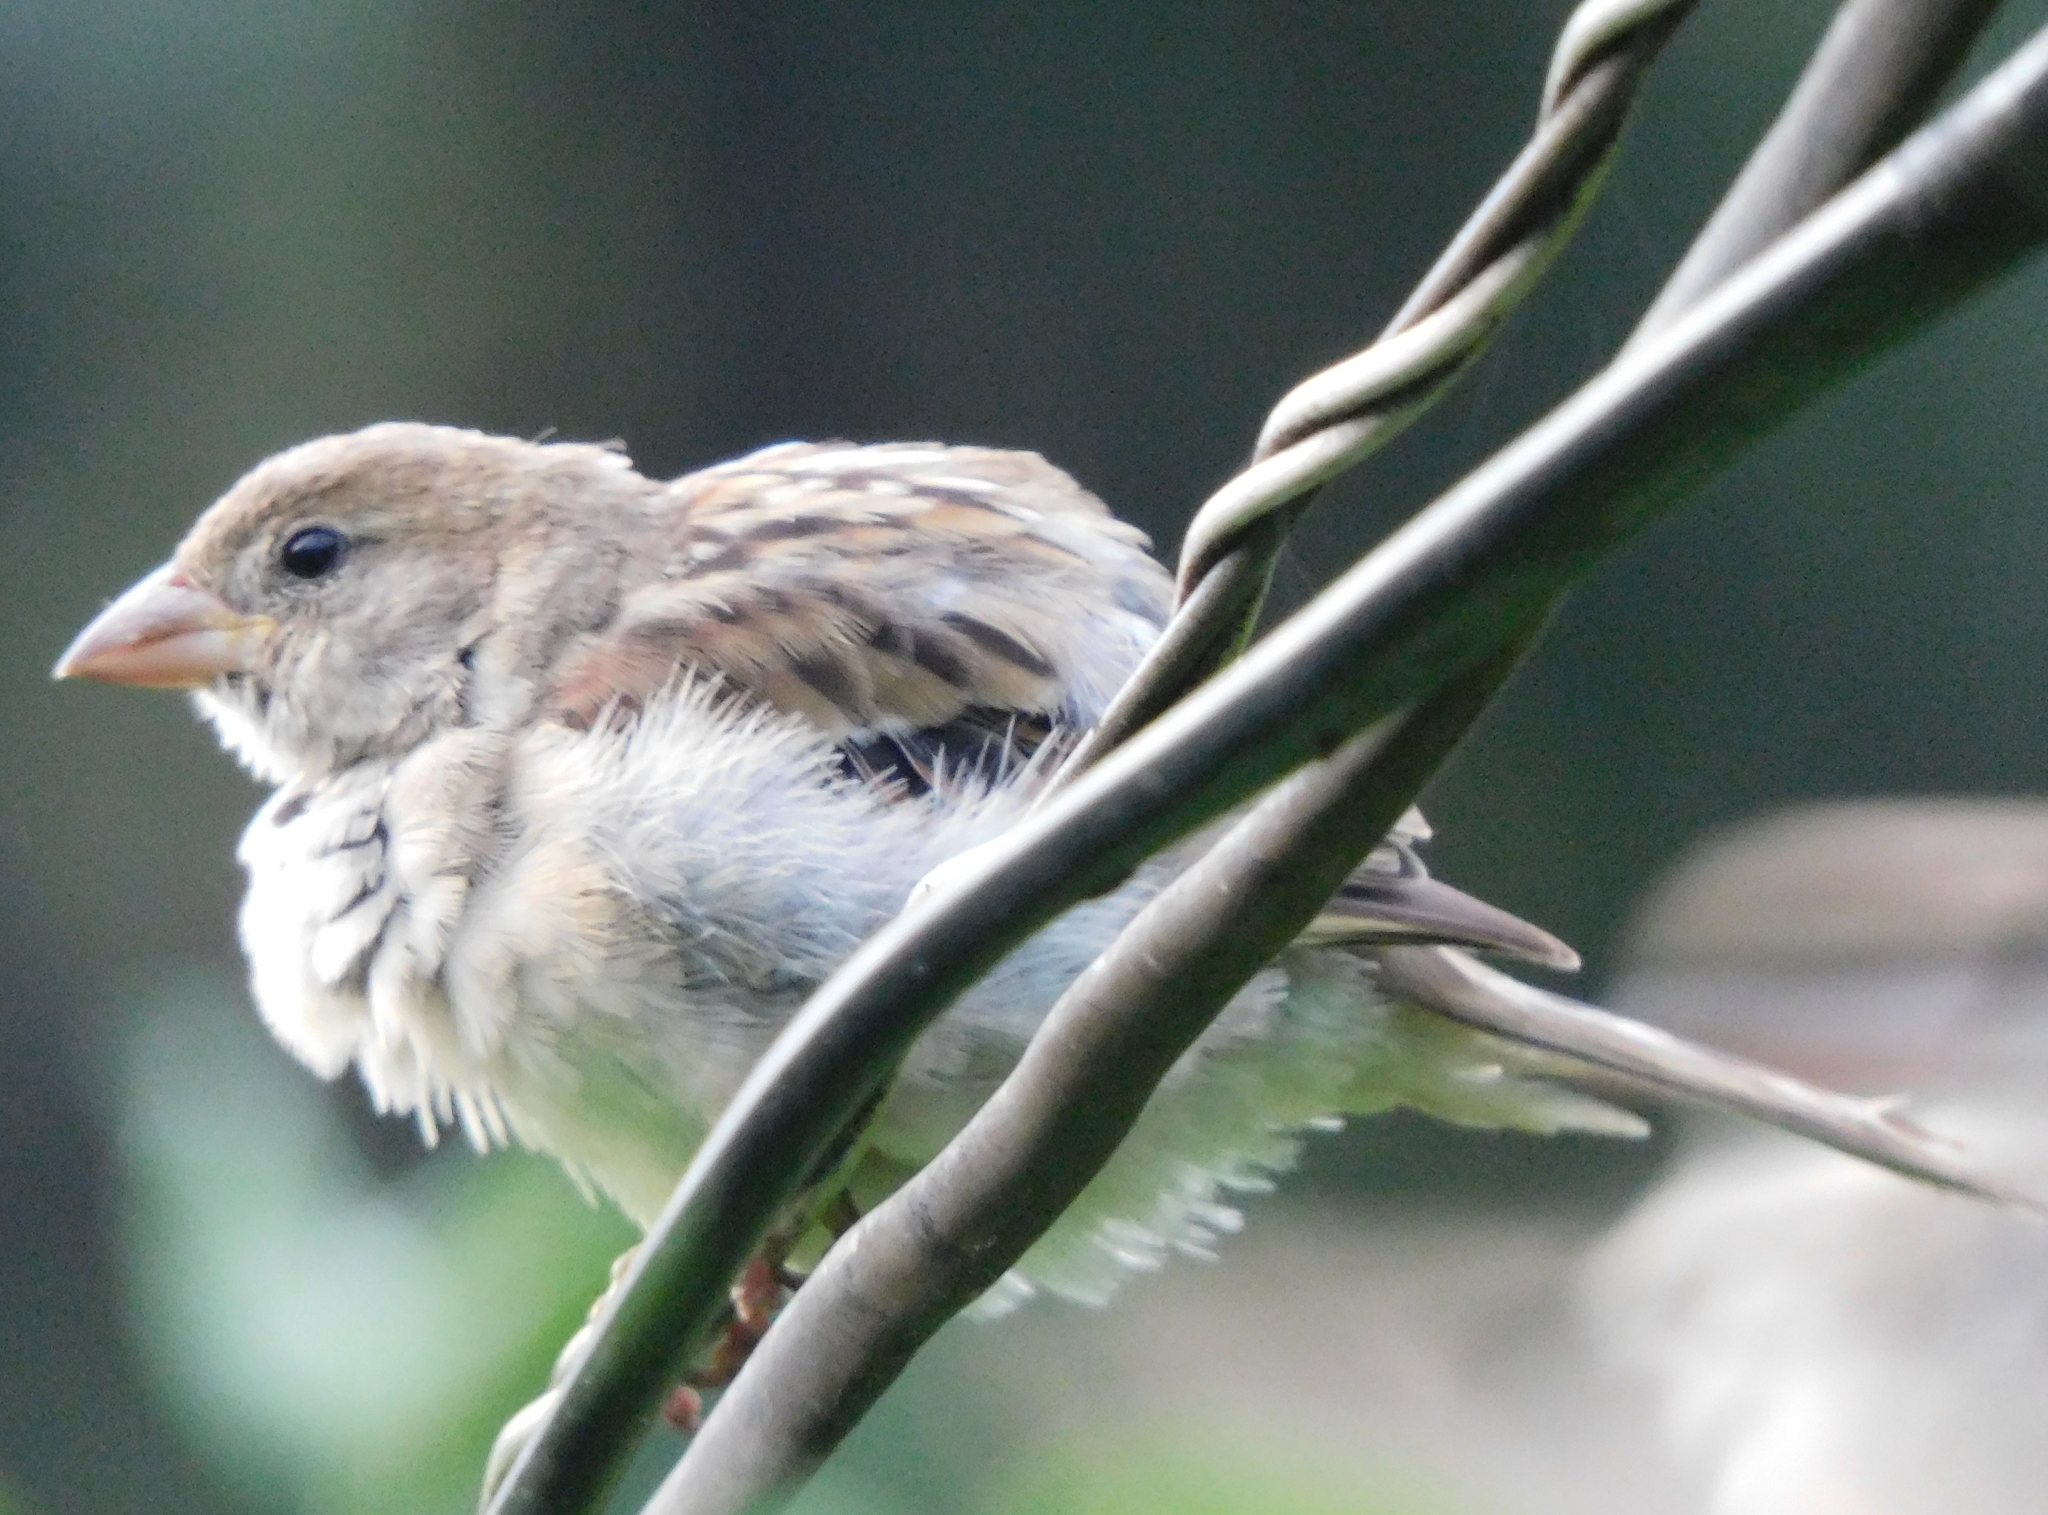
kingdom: Animalia
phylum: Chordata
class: Aves
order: Passeriformes
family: Passeridae
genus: Passer
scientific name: Passer domesticus
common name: House sparrow
